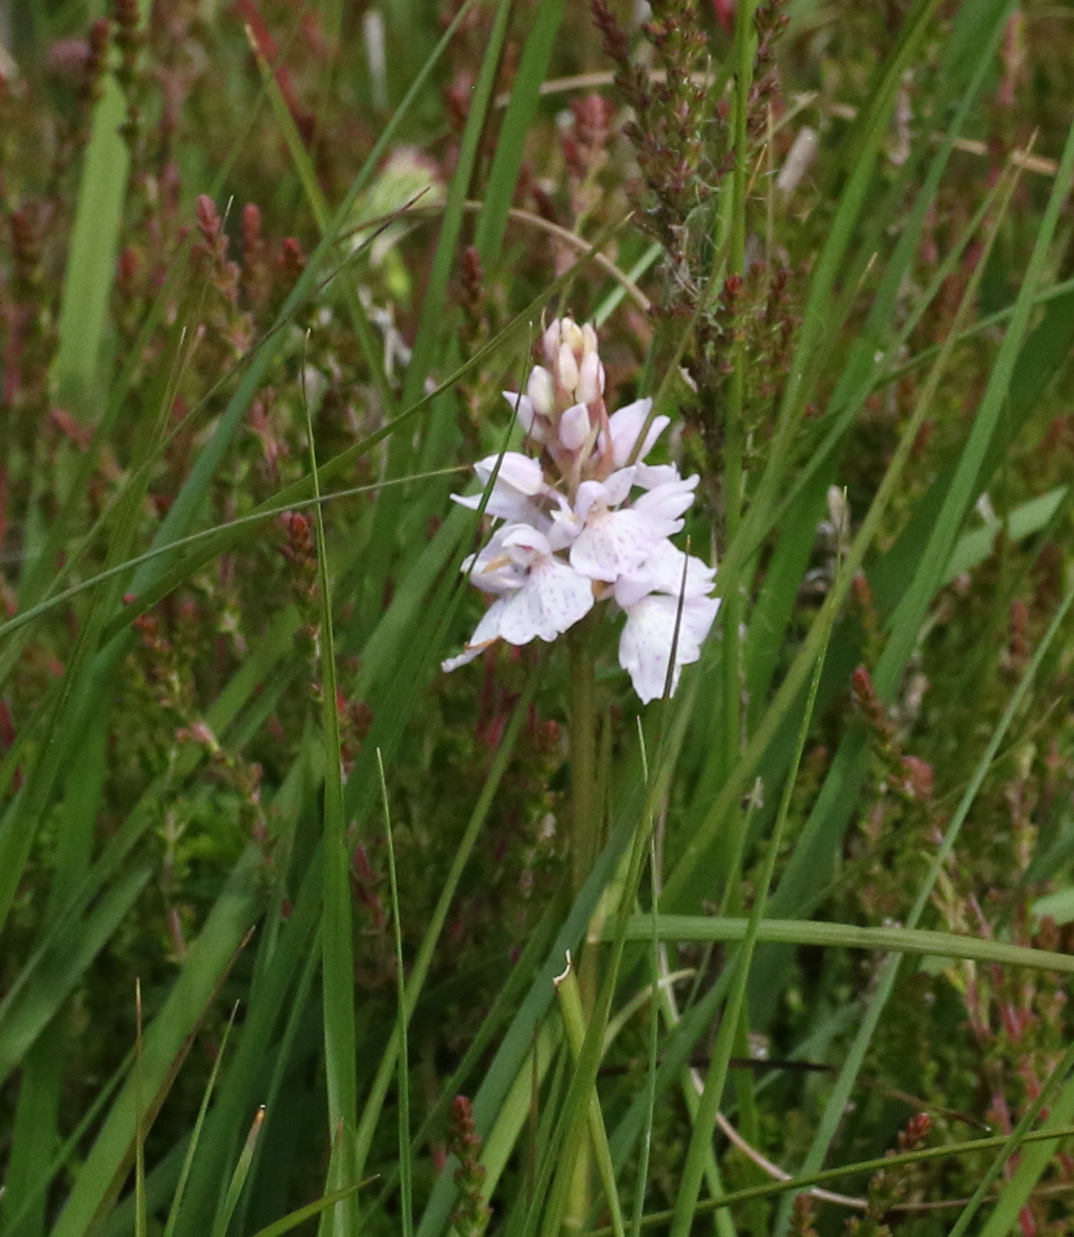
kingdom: Plantae
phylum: Tracheophyta
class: Liliopsida
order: Asparagales
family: Orchidaceae
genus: Dactylorhiza
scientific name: Dactylorhiza maculata
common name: Heath spotted-orchid
